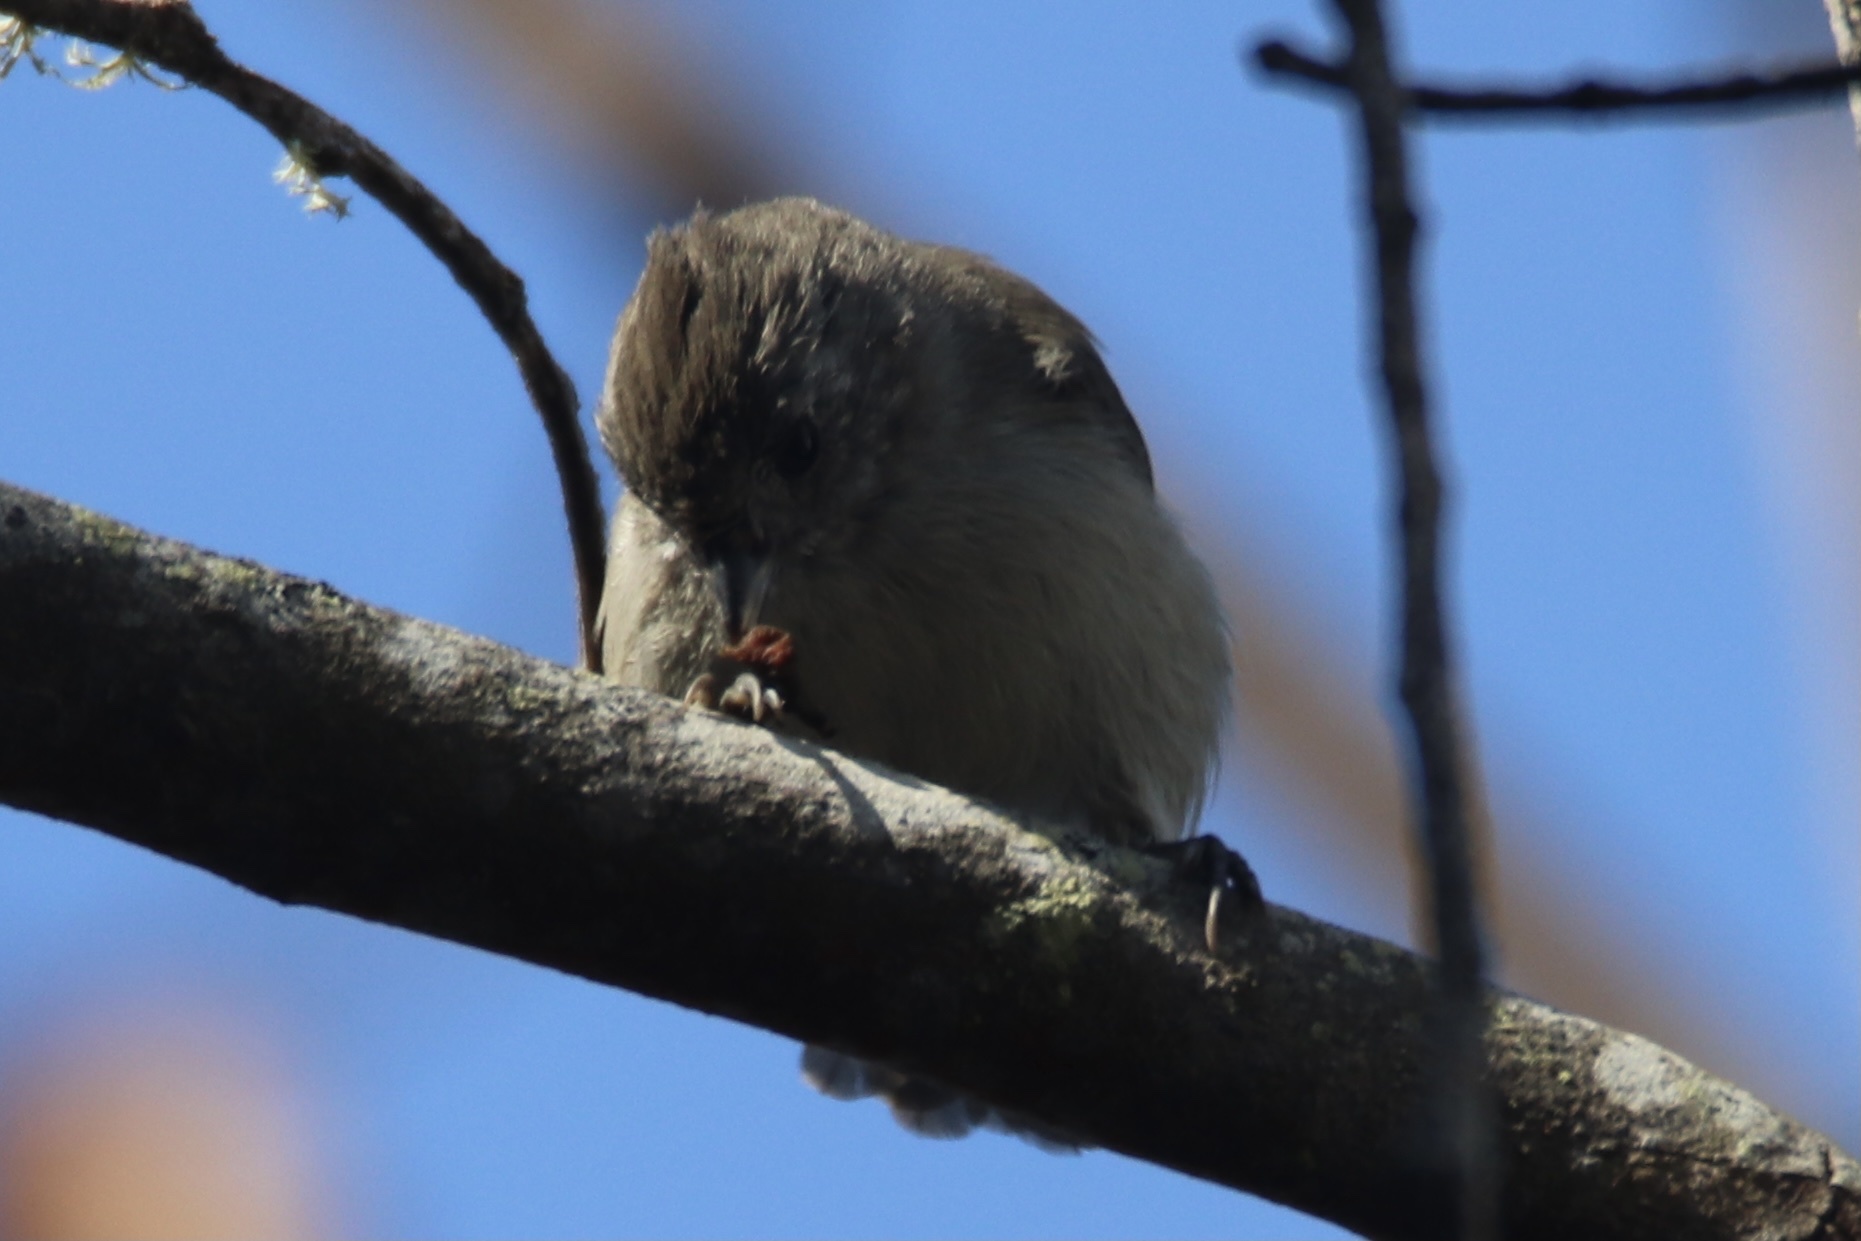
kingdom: Animalia
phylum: Chordata
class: Aves
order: Passeriformes
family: Paridae
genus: Baeolophus
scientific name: Baeolophus inornatus
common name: Oak titmouse
